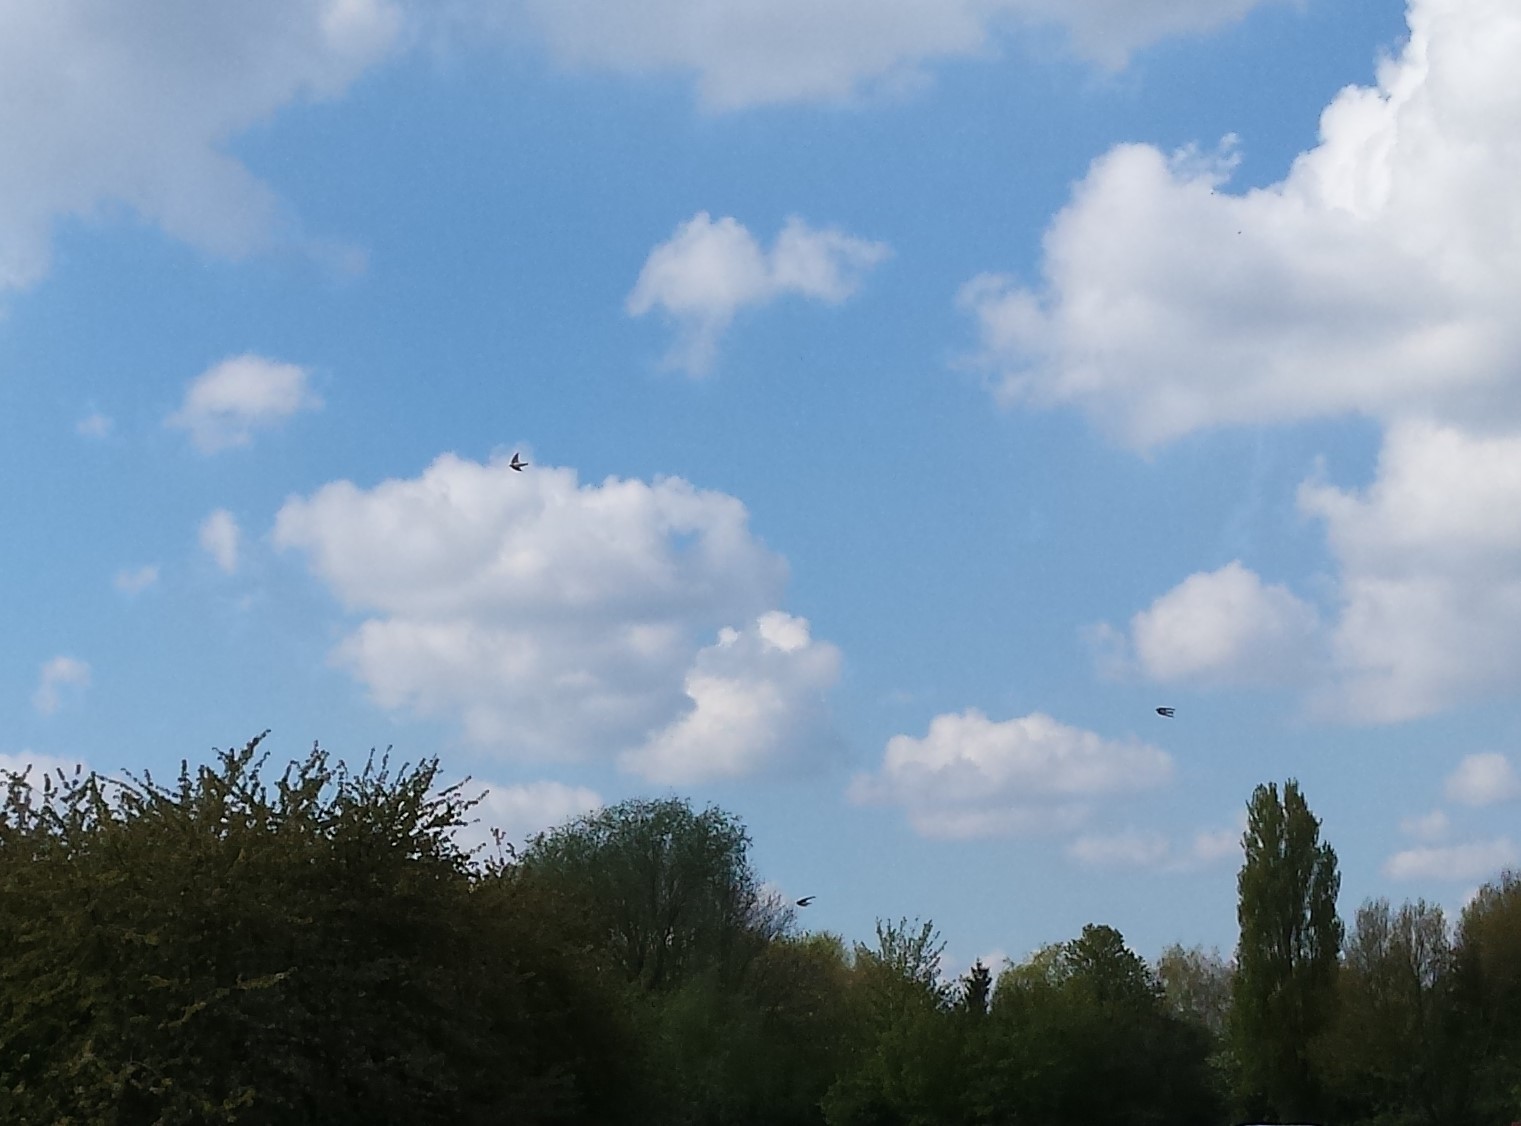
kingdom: Animalia
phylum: Chordata
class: Aves
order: Passeriformes
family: Hirundinidae
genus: Delichon
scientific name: Delichon urbicum
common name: Common house martin
